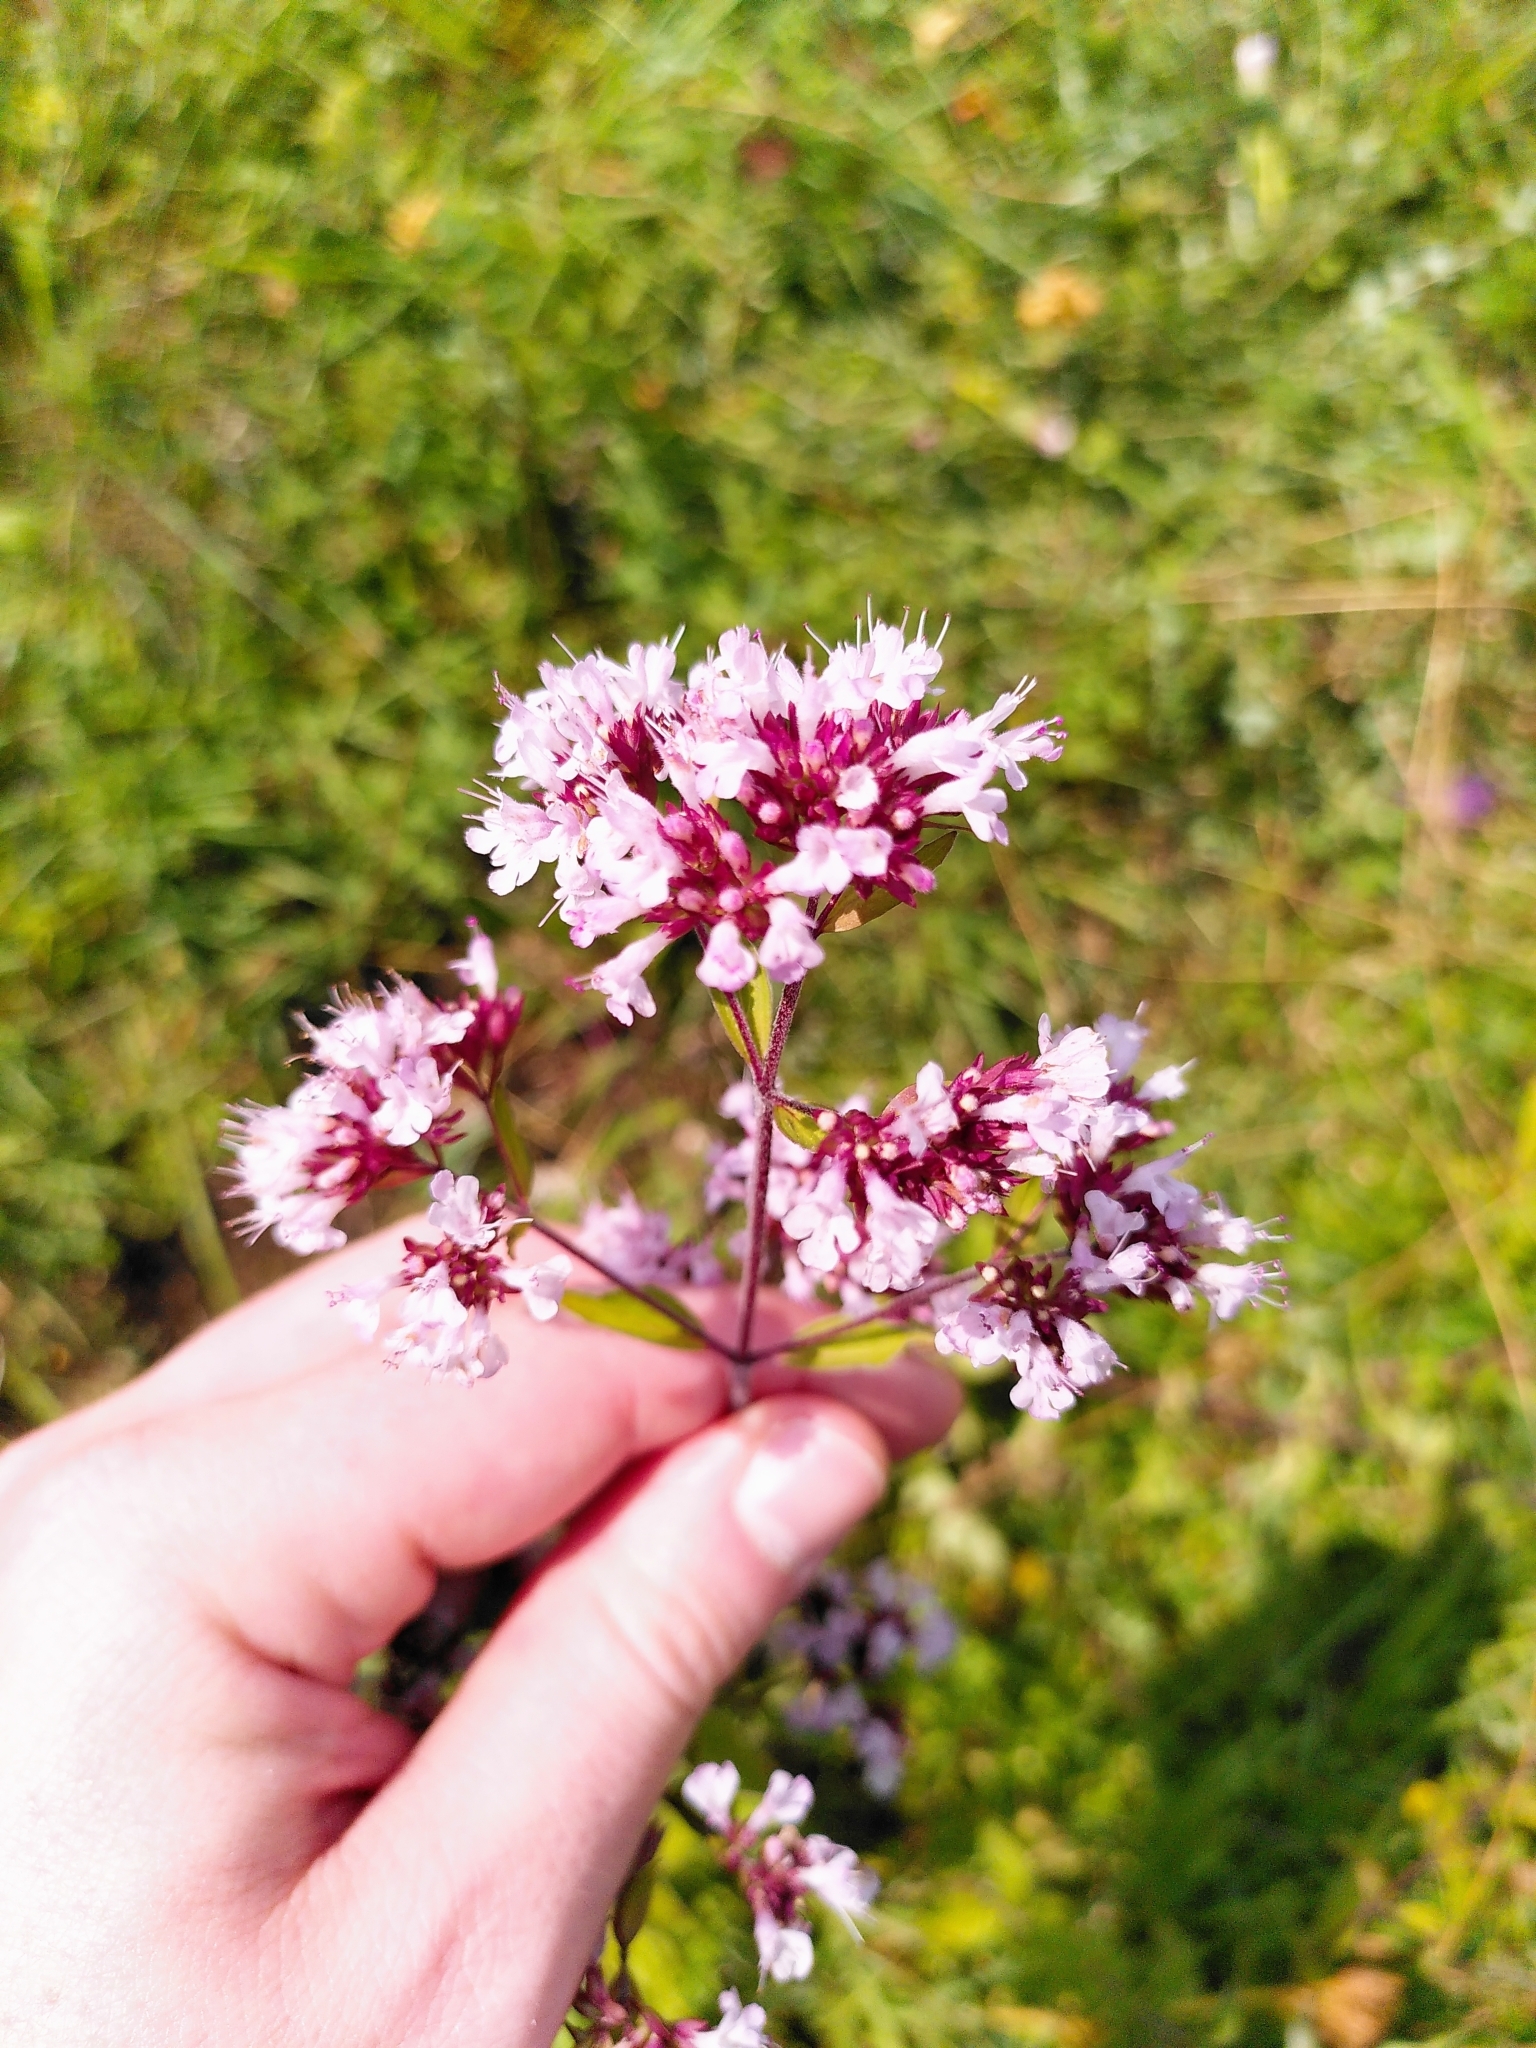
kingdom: Plantae
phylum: Tracheophyta
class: Magnoliopsida
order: Lamiales
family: Lamiaceae
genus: Origanum
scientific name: Origanum vulgare
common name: Wild marjoram
